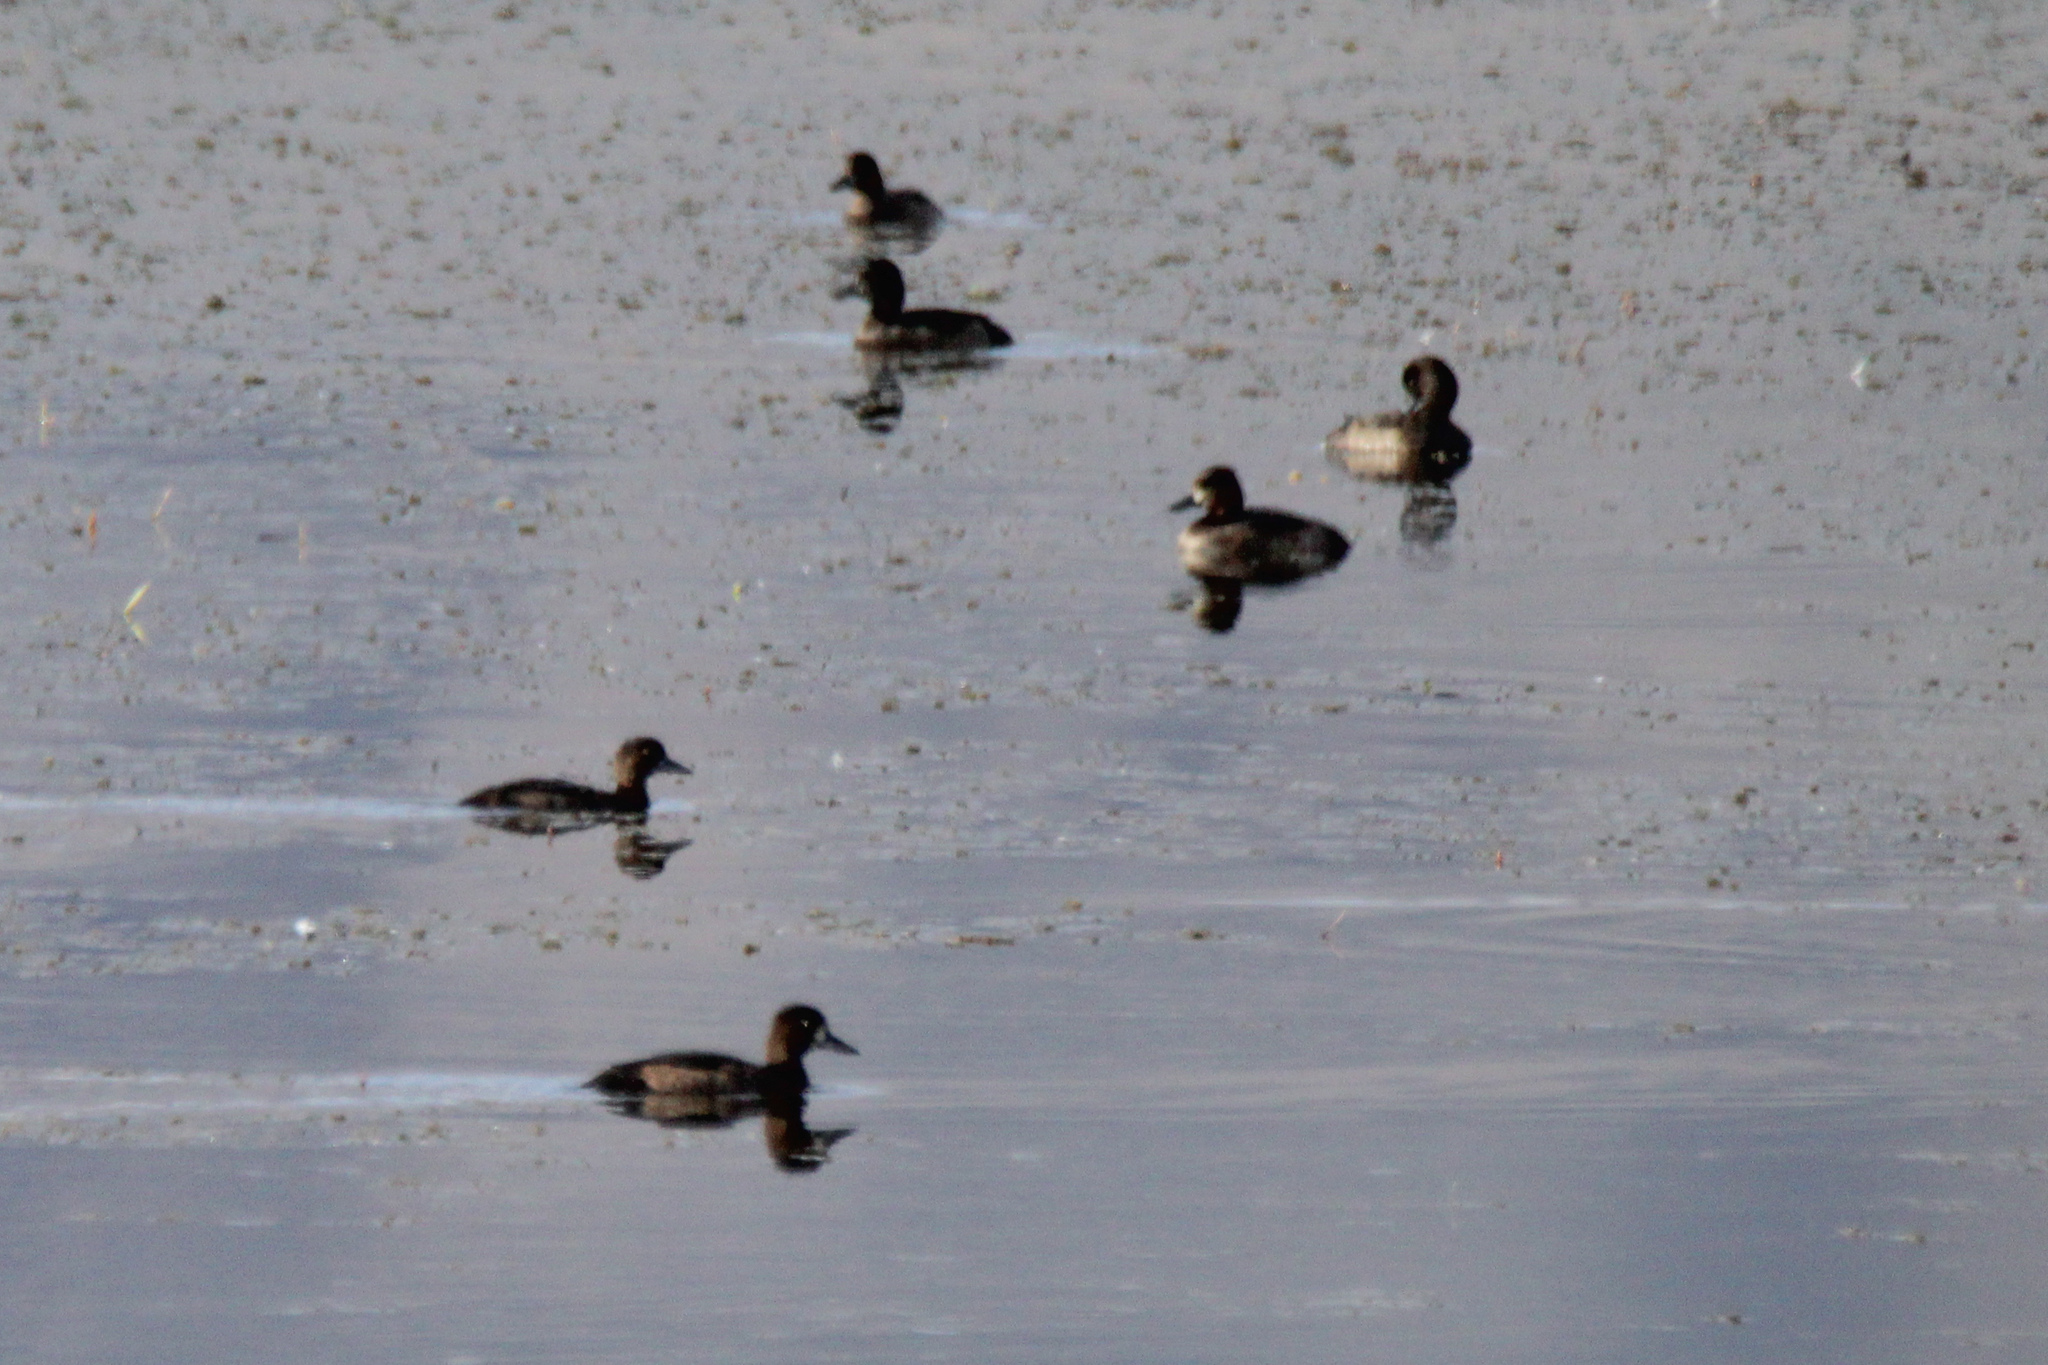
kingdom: Animalia
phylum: Chordata
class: Aves
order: Anseriformes
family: Anatidae
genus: Aythya
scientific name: Aythya fuligula
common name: Tufted duck
